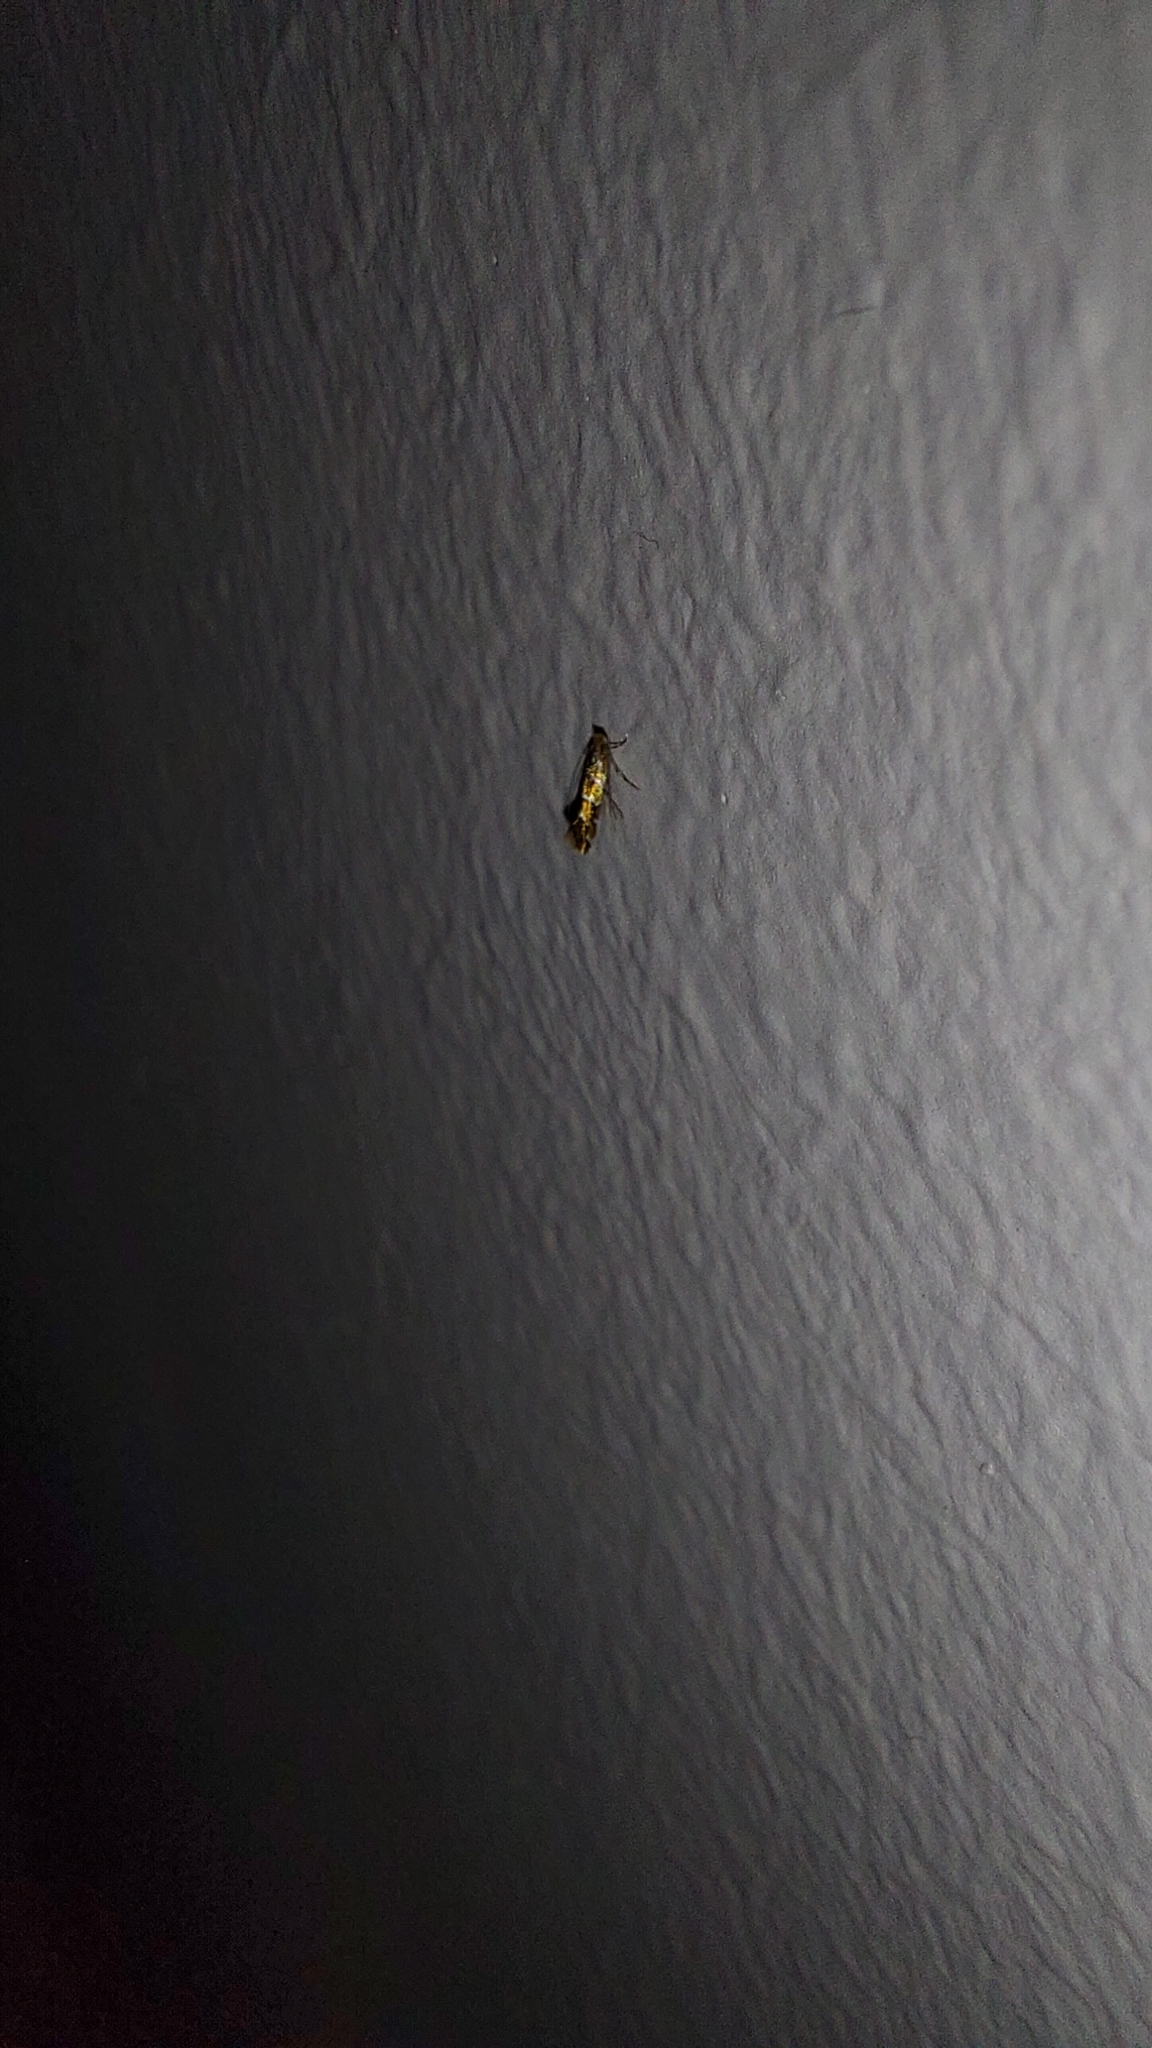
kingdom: Animalia
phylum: Arthropoda
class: Insecta
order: Lepidoptera
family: Gracillariidae
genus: Cameraria
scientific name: Cameraria ohridella
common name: Horse-chestnut leaf-miner
